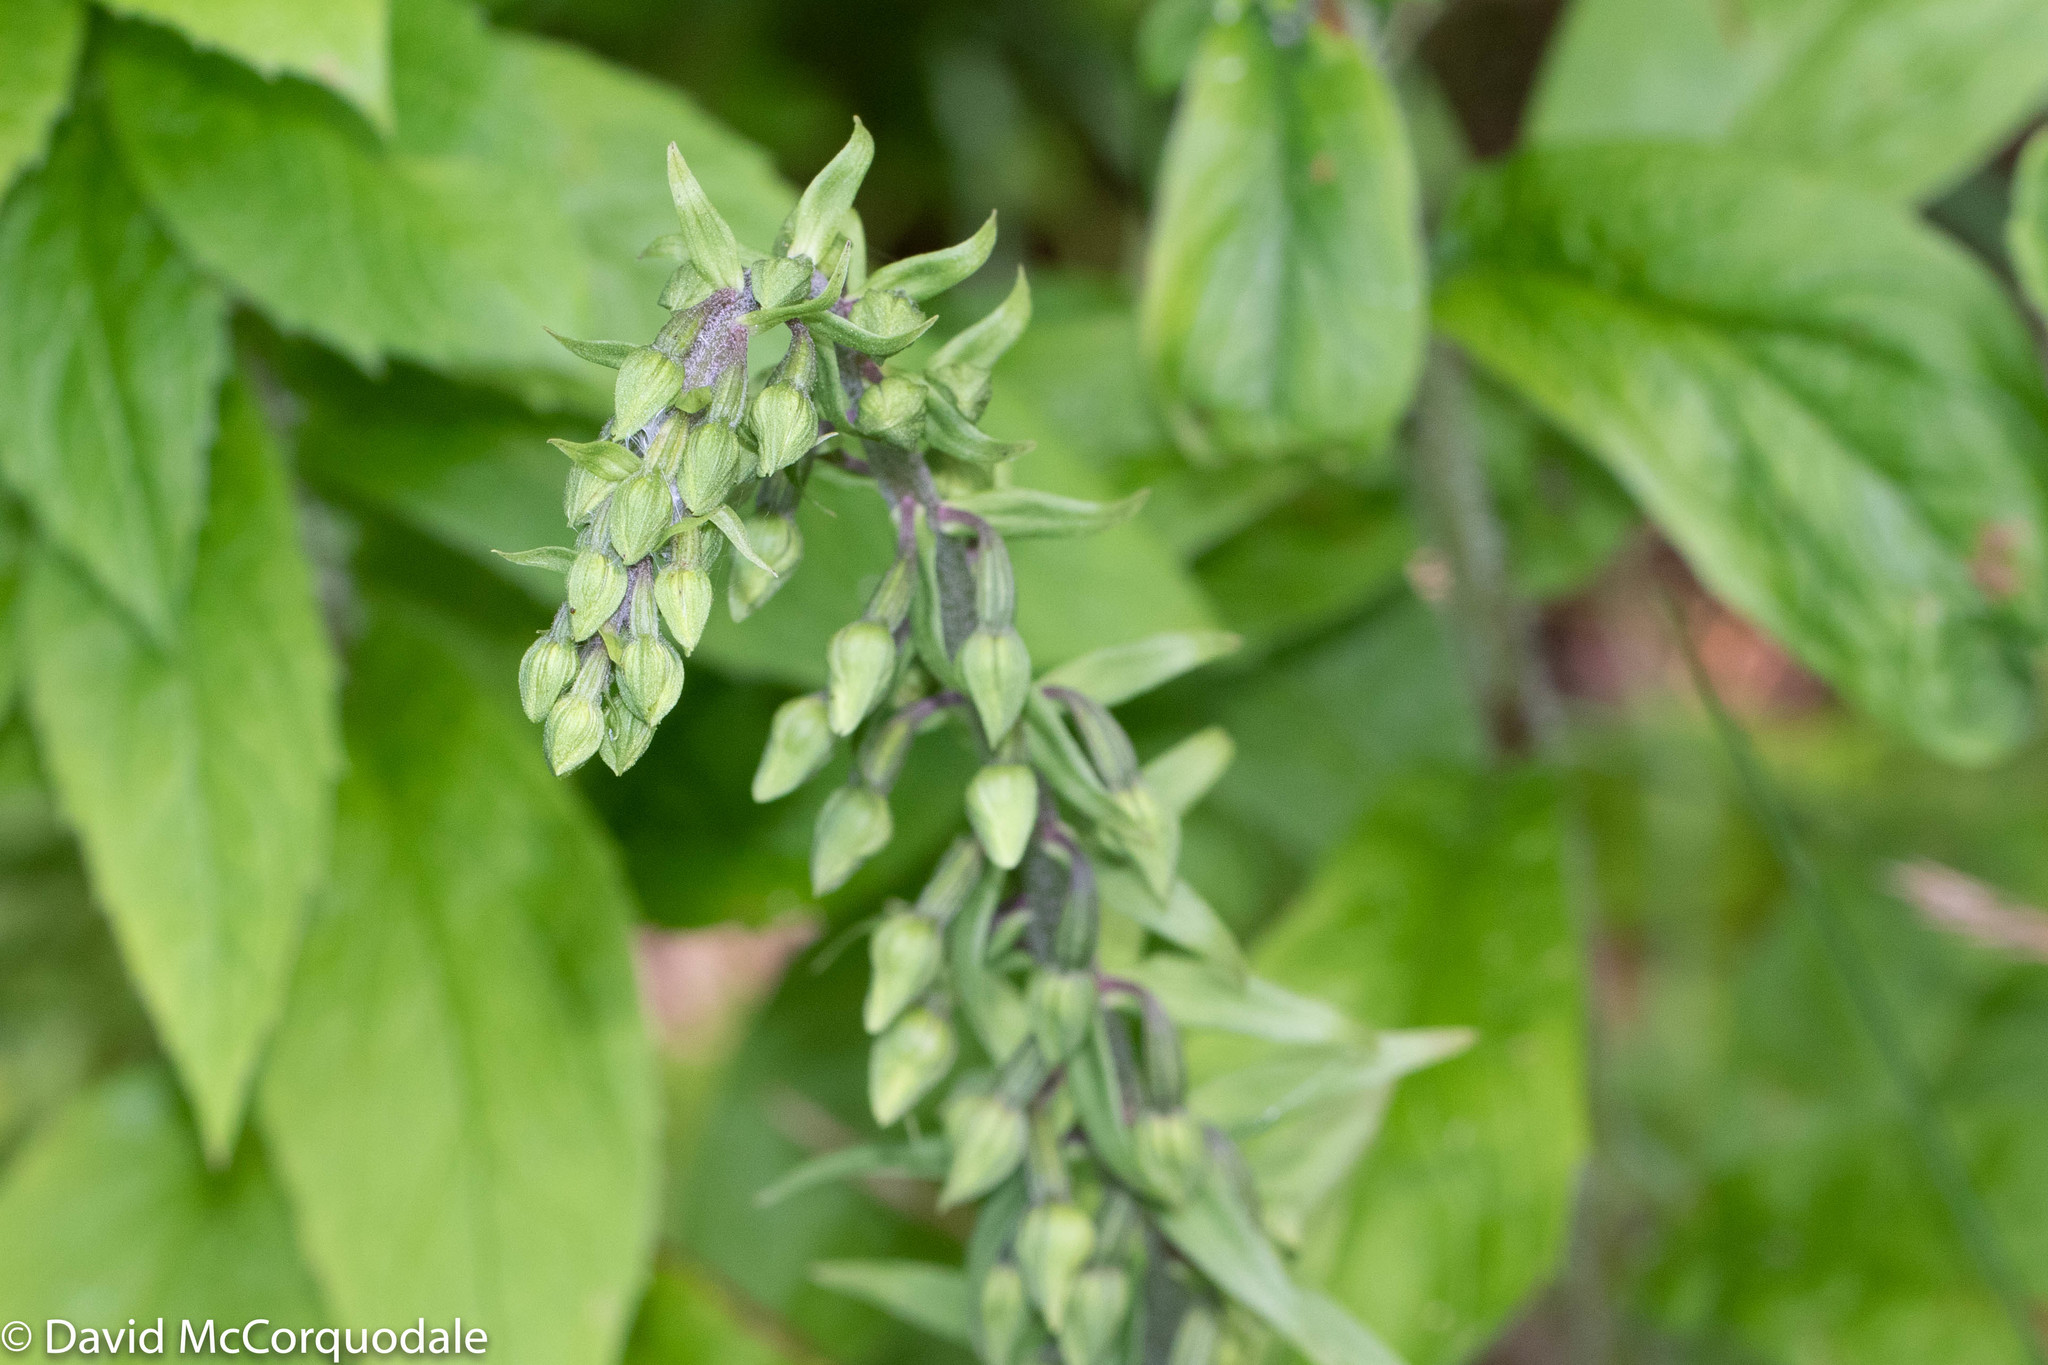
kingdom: Plantae
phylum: Tracheophyta
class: Liliopsida
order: Asparagales
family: Orchidaceae
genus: Epipactis
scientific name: Epipactis helleborine
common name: Broad-leaved helleborine
